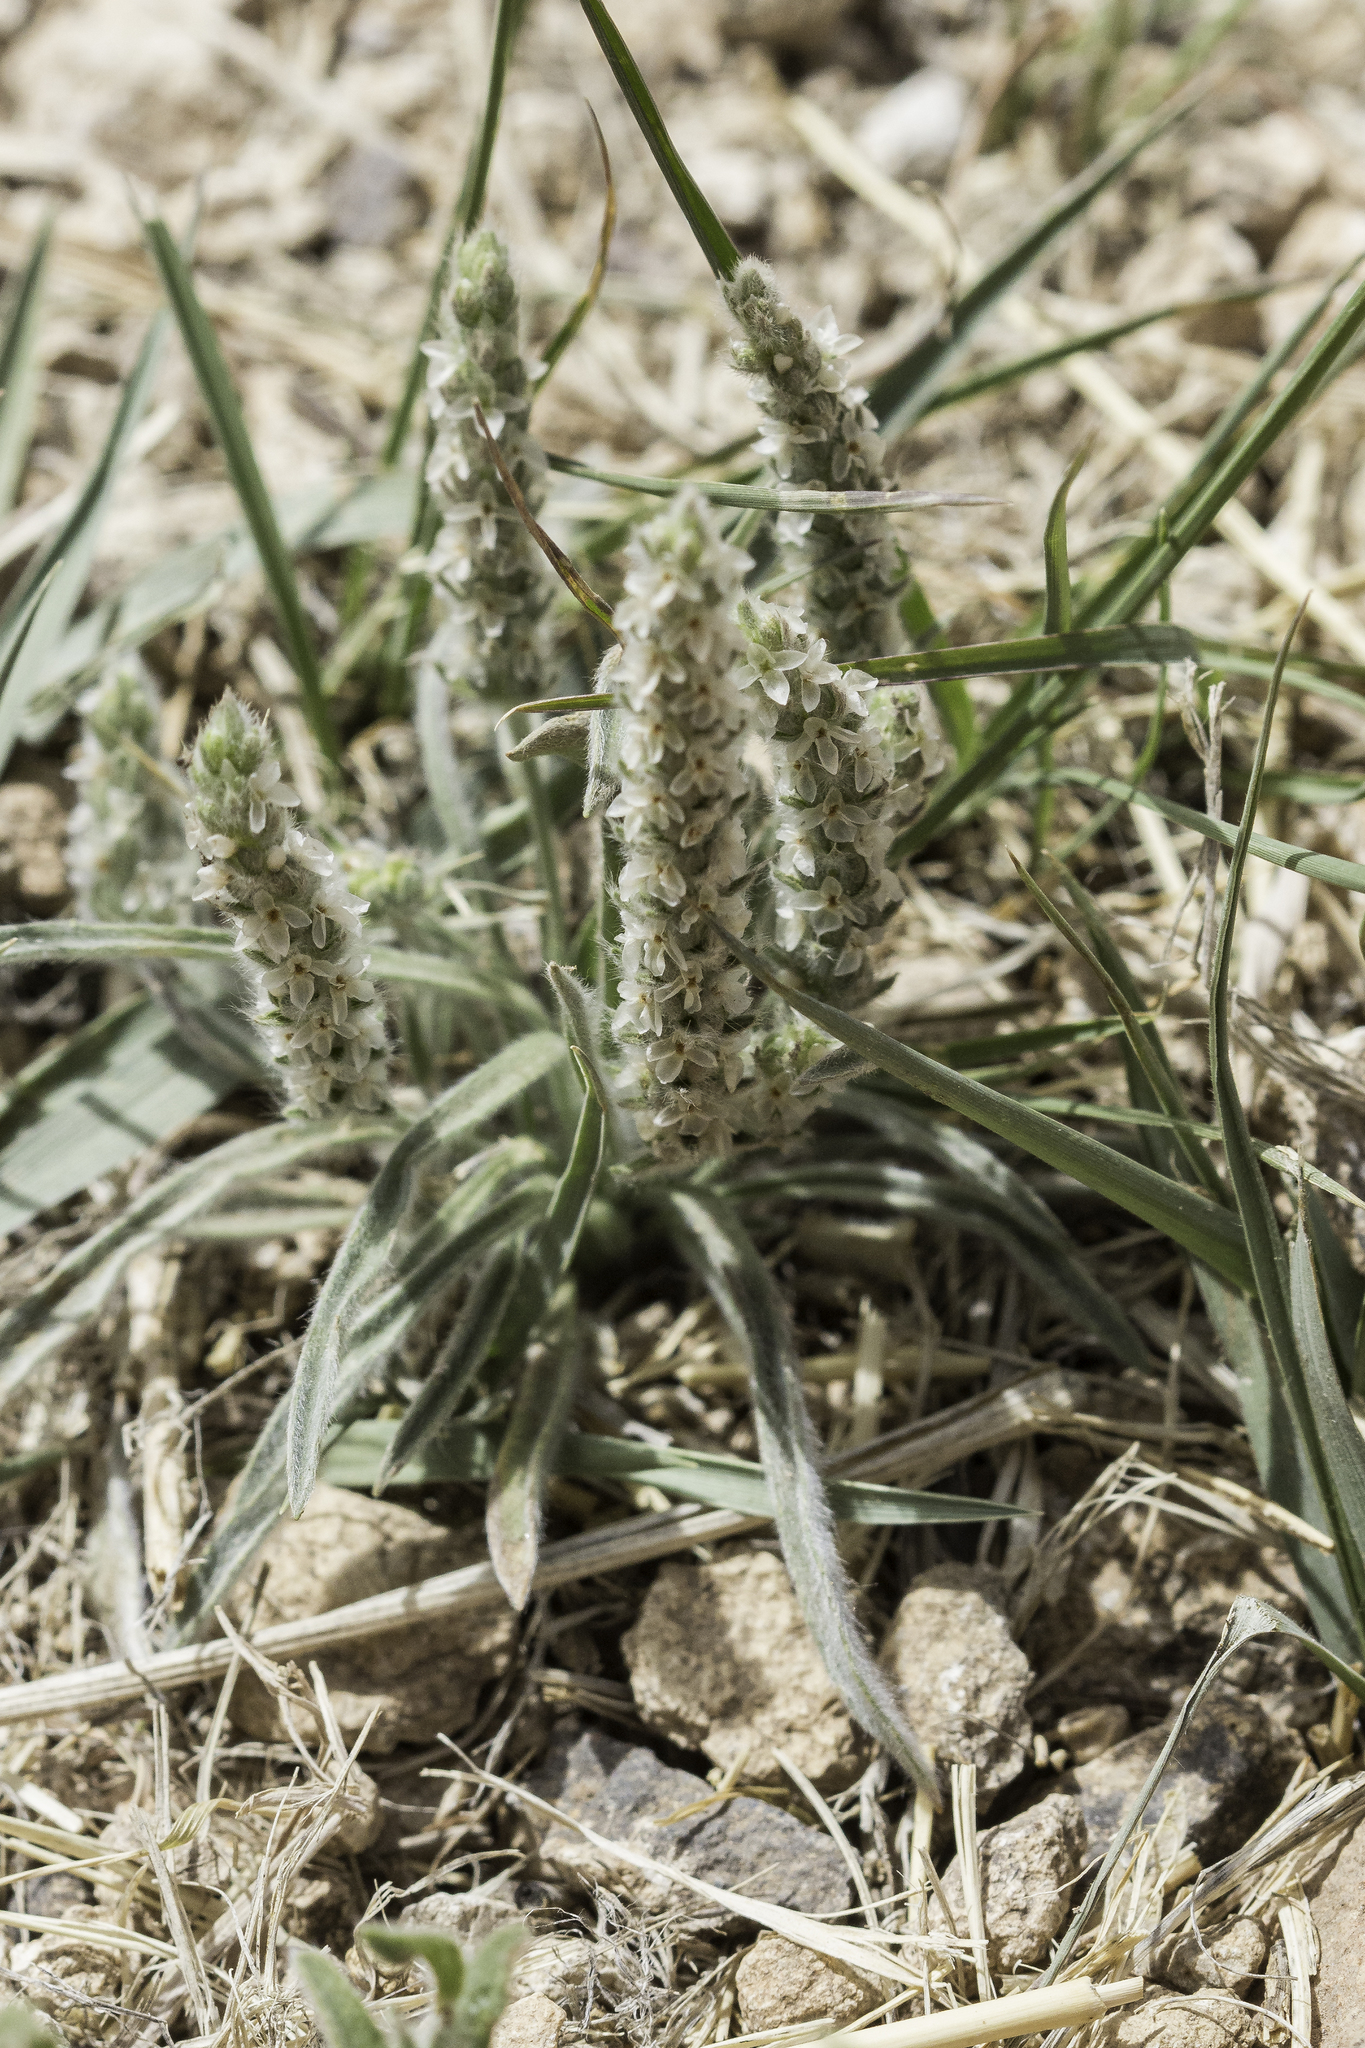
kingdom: Plantae
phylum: Tracheophyta
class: Magnoliopsida
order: Lamiales
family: Plantaginaceae
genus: Plantago
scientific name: Plantago patagonica
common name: Patagonia indian-wheat
